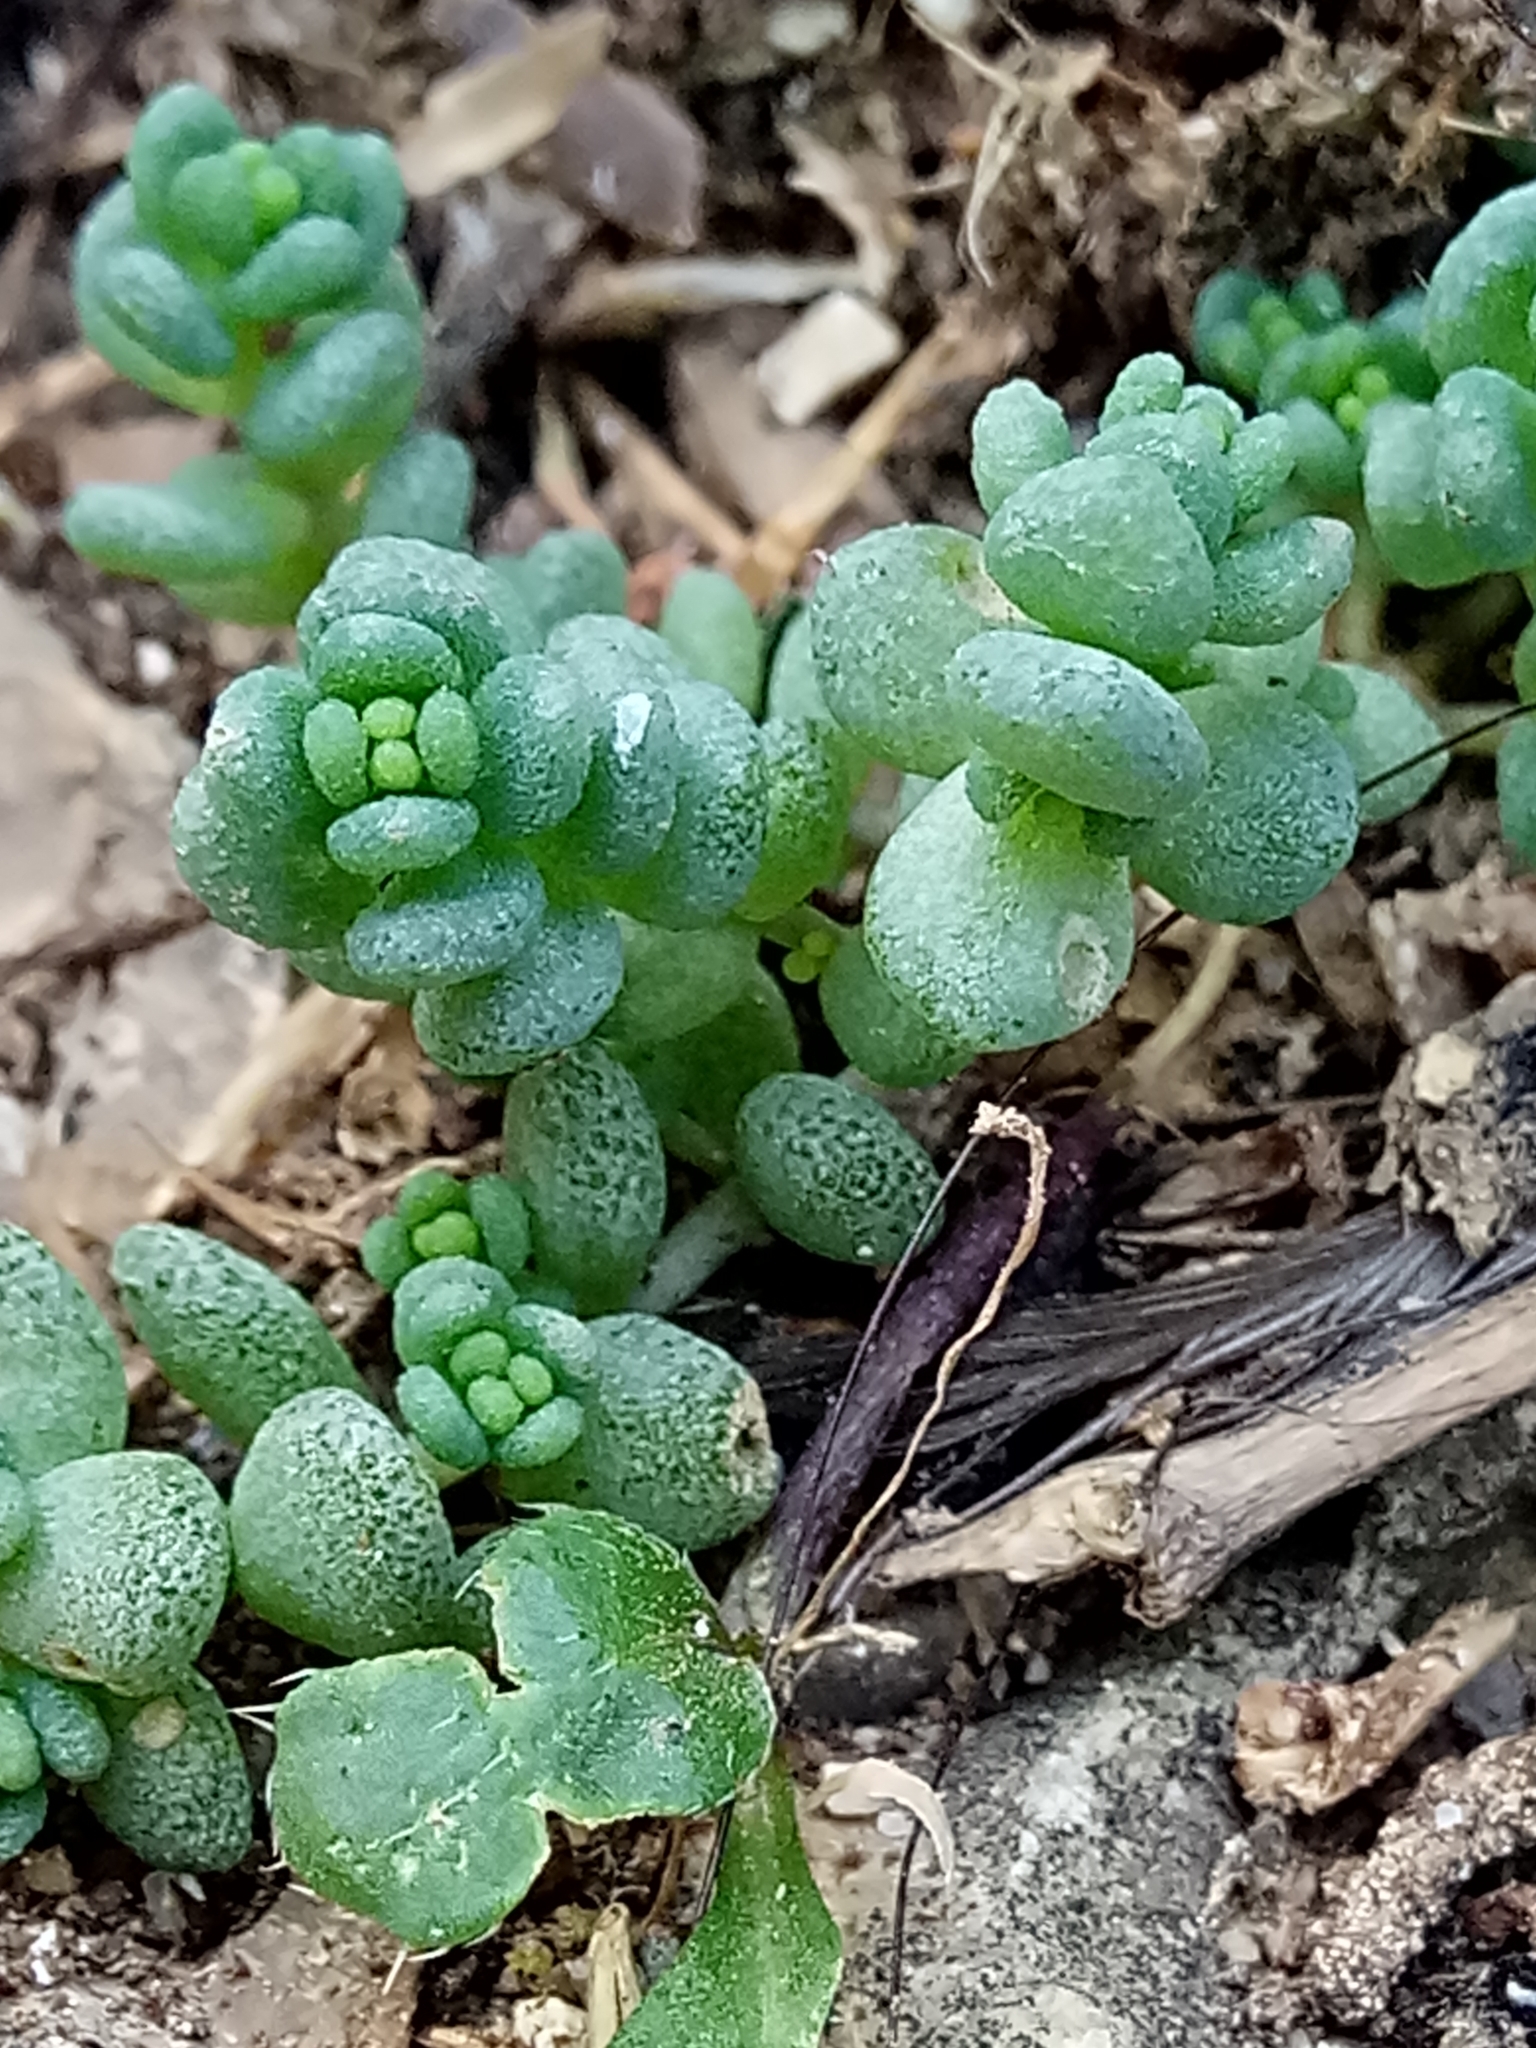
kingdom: Plantae
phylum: Tracheophyta
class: Magnoliopsida
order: Saxifragales
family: Crassulaceae
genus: Sedum
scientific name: Sedum dasyphyllum
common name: Thick-leaf stonecrop
